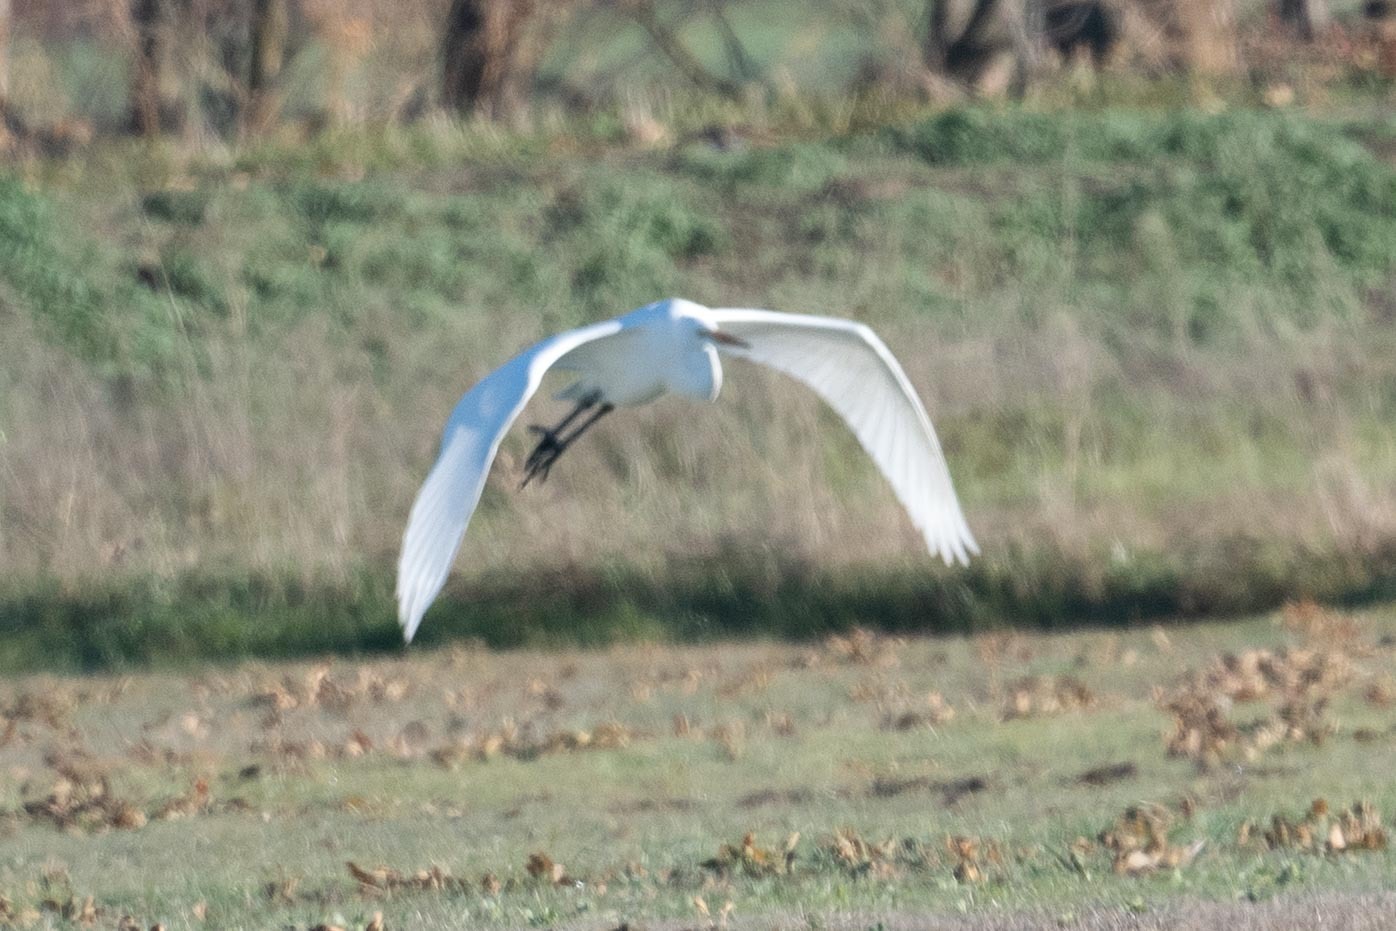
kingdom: Animalia
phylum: Chordata
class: Aves
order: Pelecaniformes
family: Ardeidae
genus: Ardea
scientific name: Ardea alba
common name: Great egret
